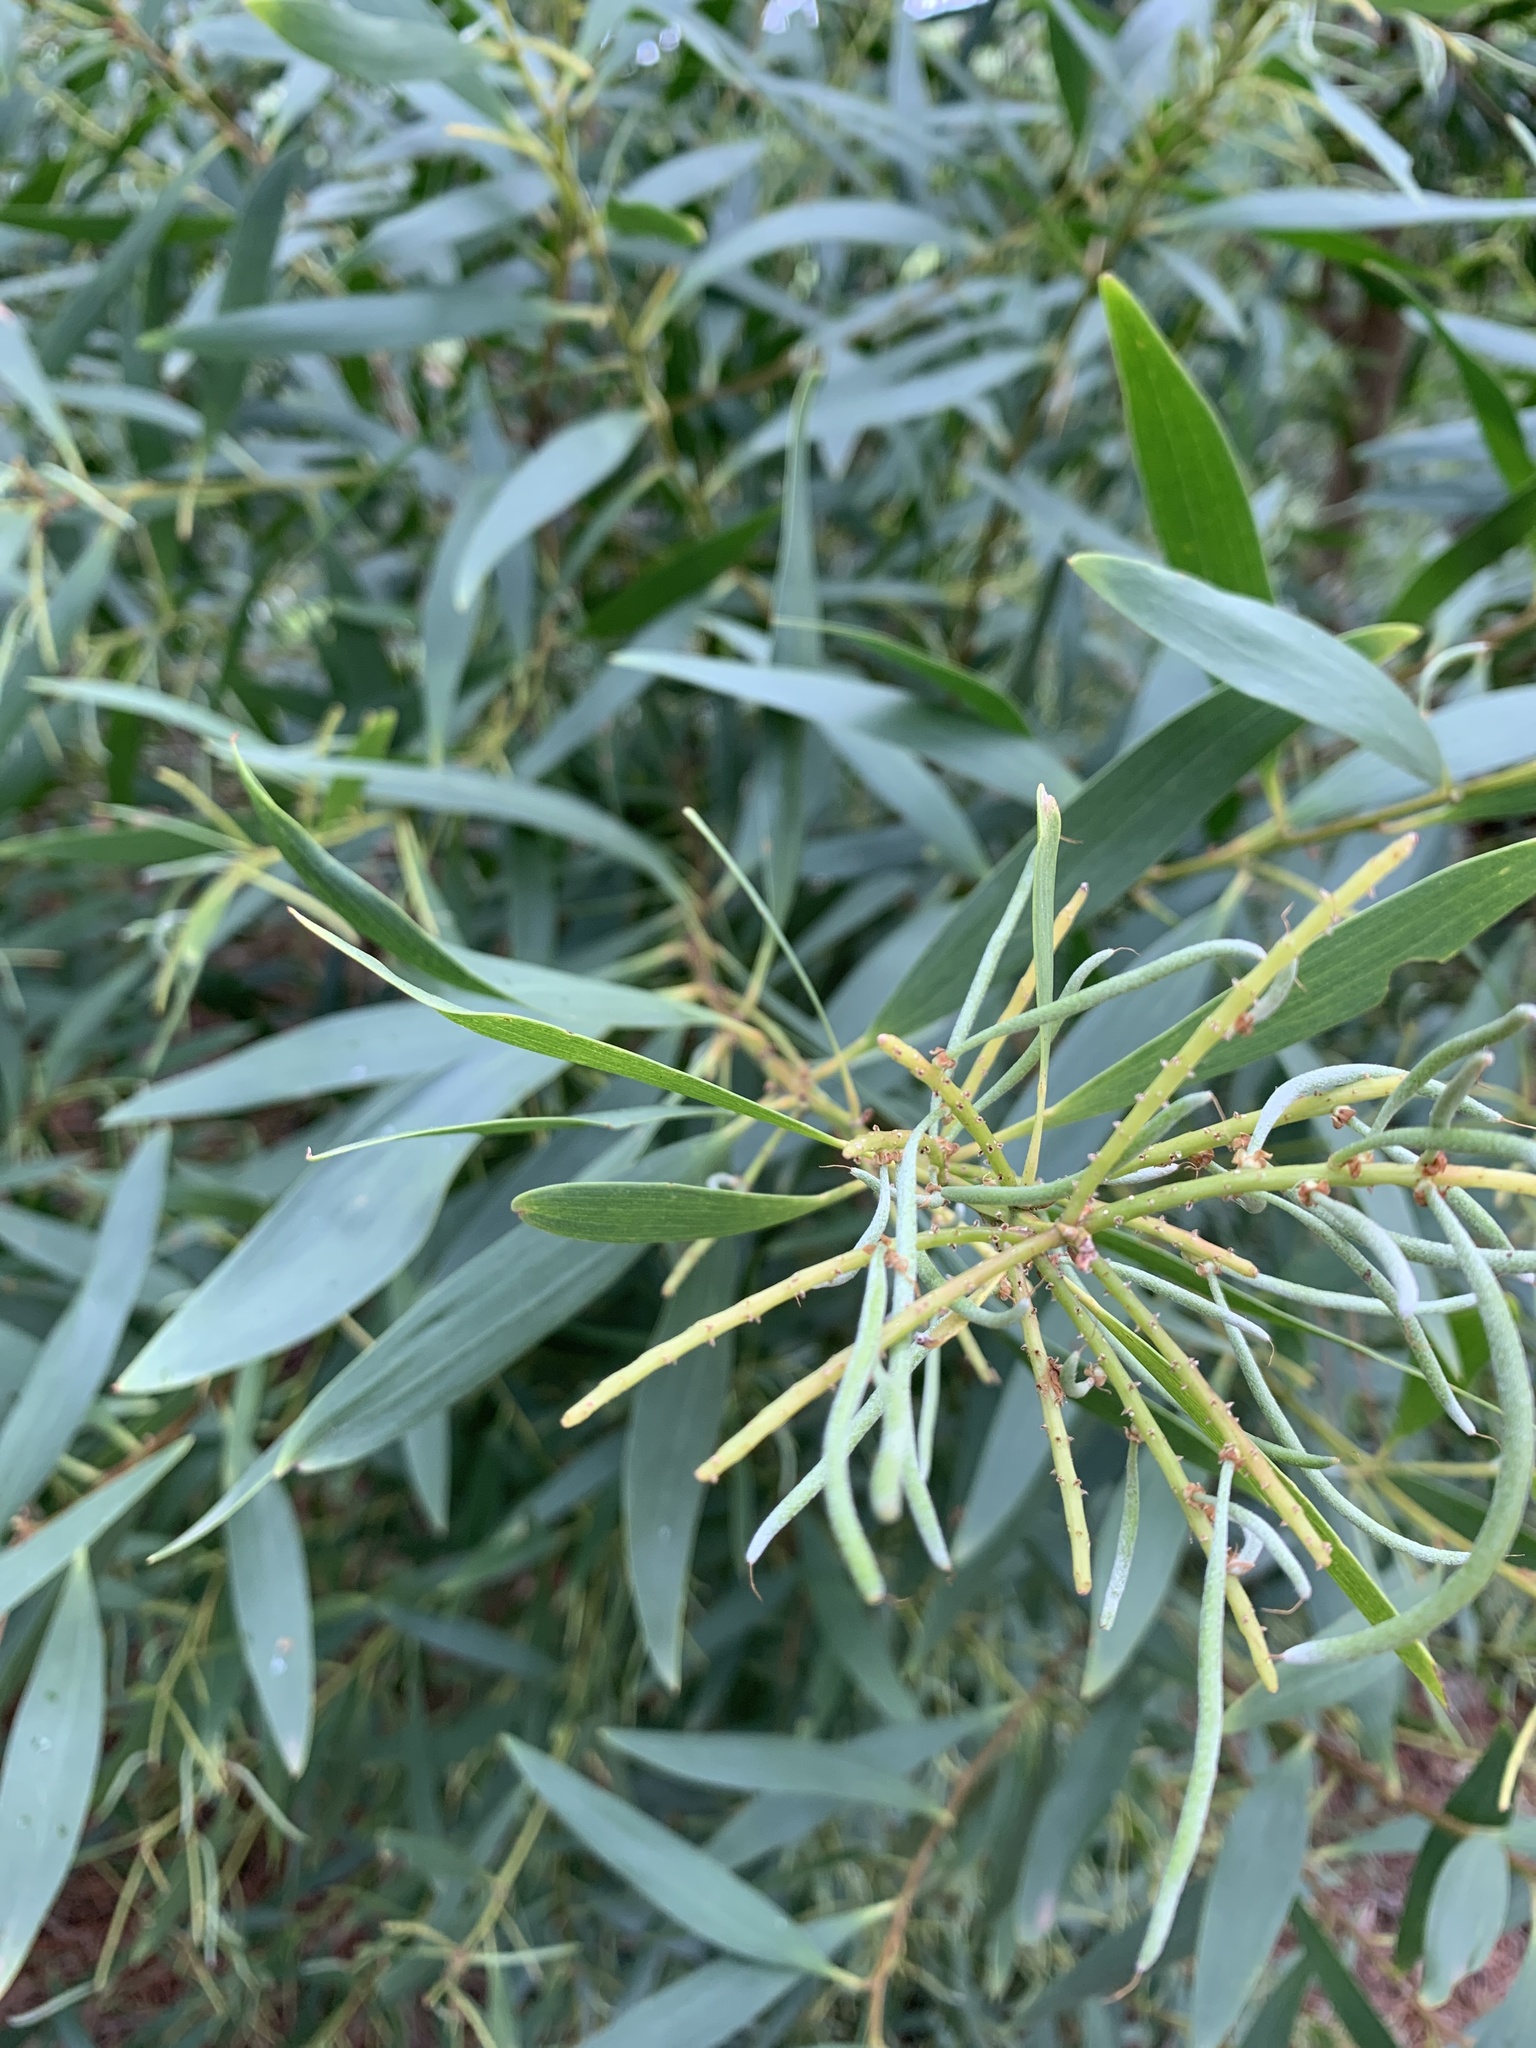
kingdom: Plantae
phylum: Tracheophyta
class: Magnoliopsida
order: Fabales
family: Fabaceae
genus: Acacia
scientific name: Acacia longifolia
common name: Sydney golden wattle
